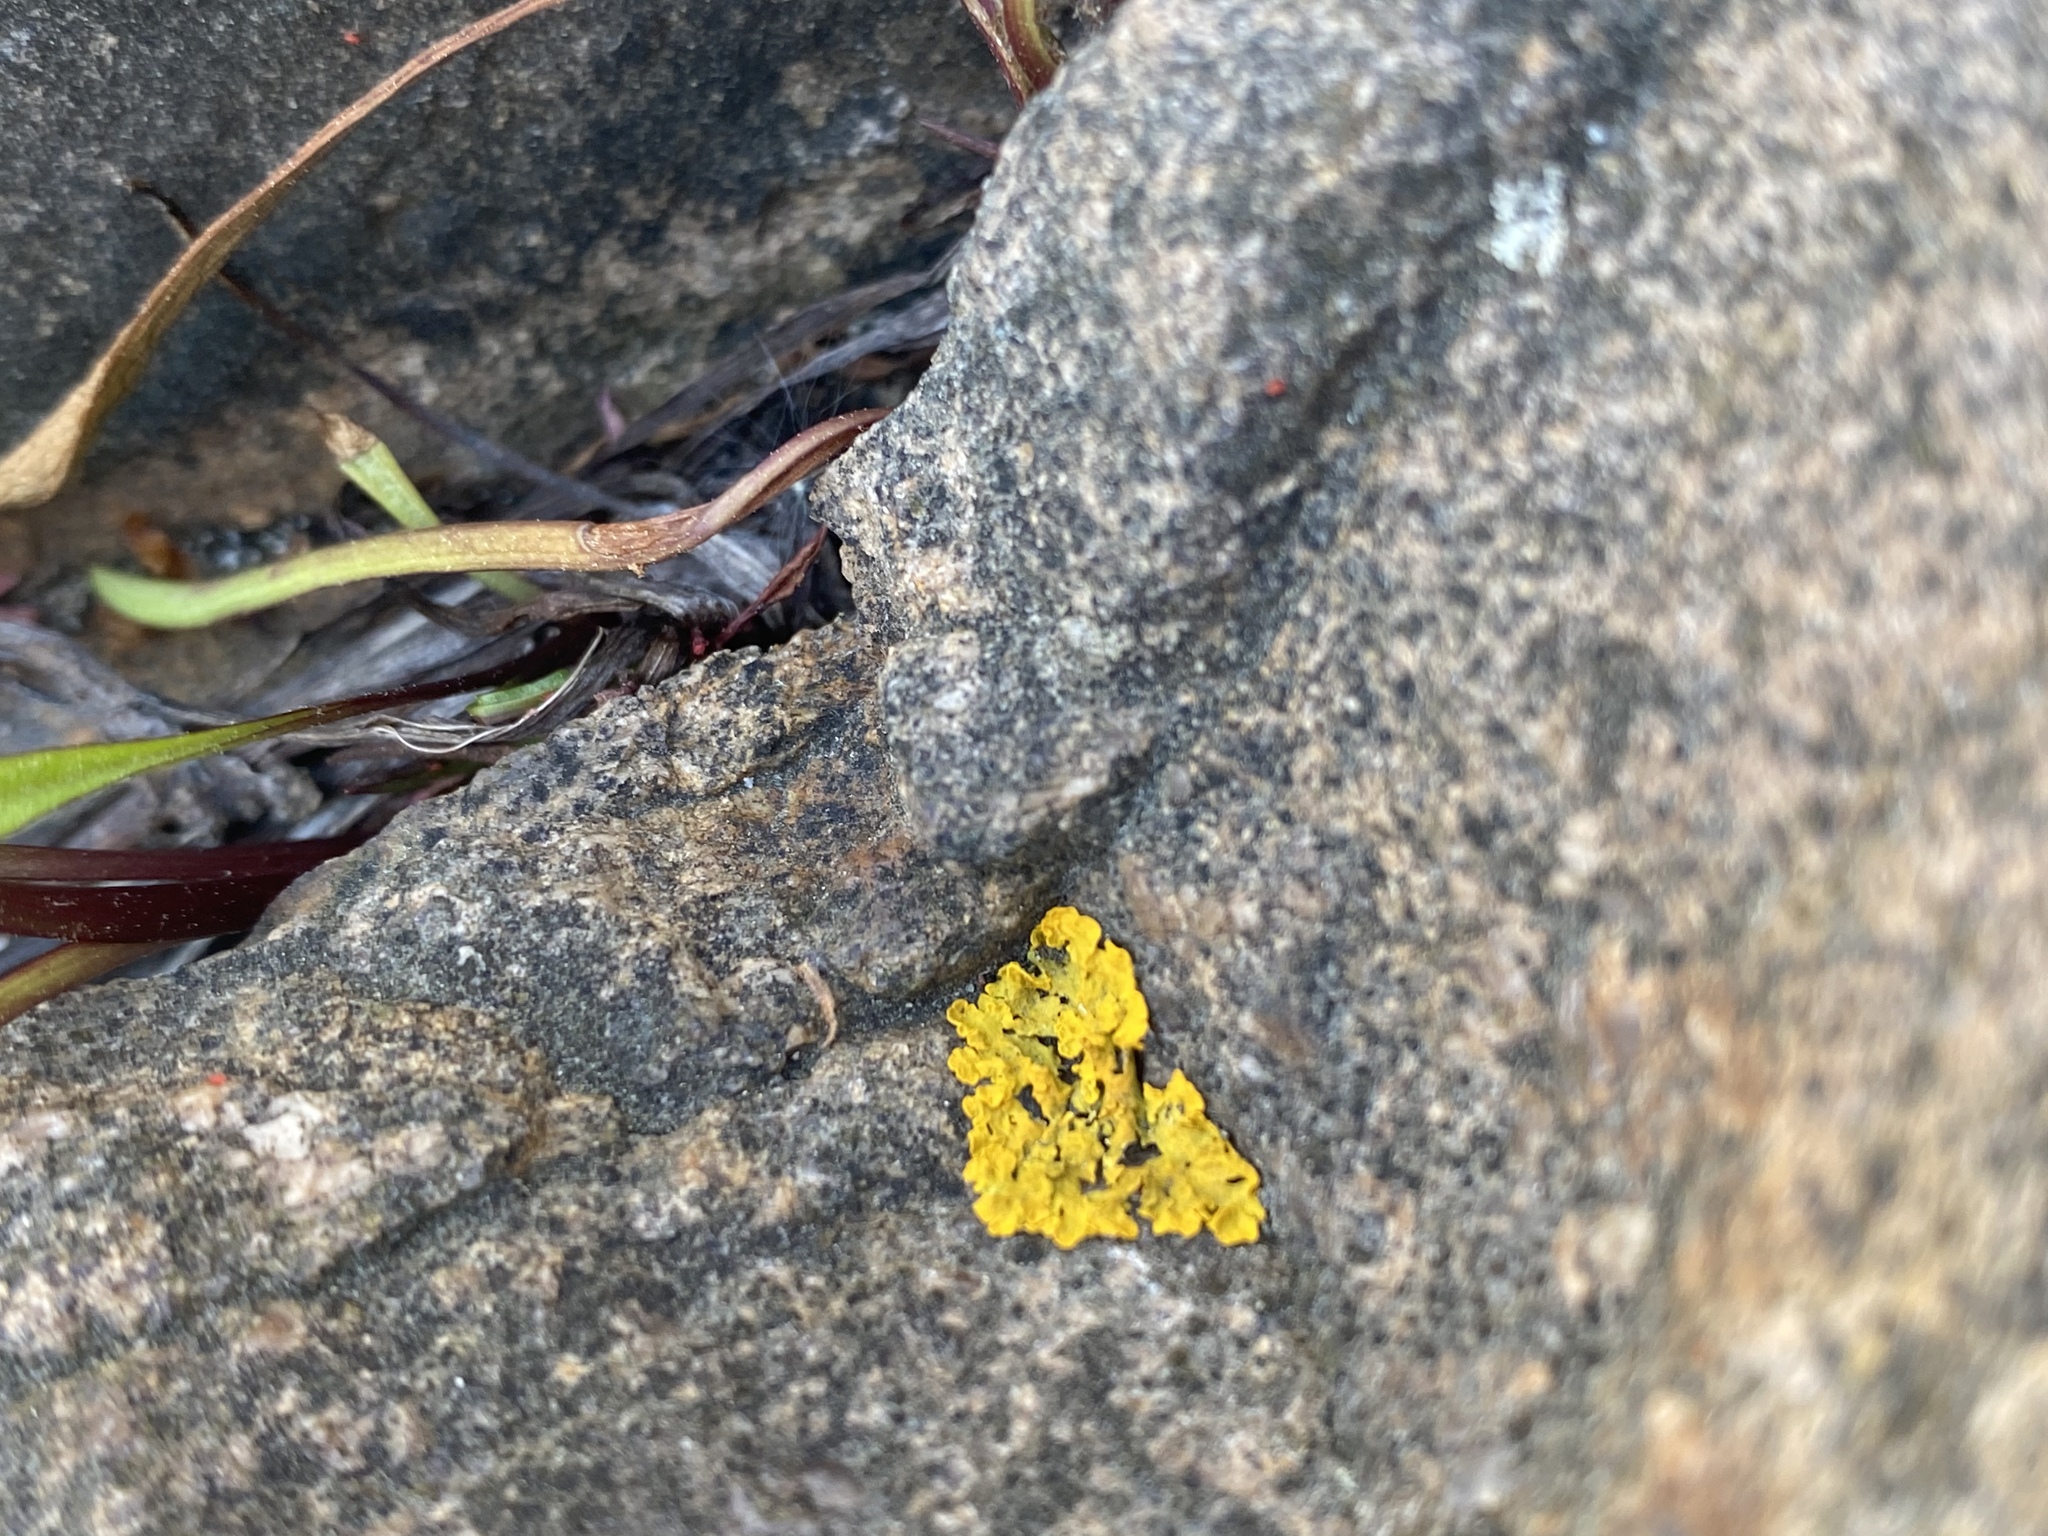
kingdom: Fungi
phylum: Ascomycota
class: Lecanoromycetes
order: Teloschistales
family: Teloschistaceae
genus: Xanthoria
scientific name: Xanthoria parietina
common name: Common orange lichen
